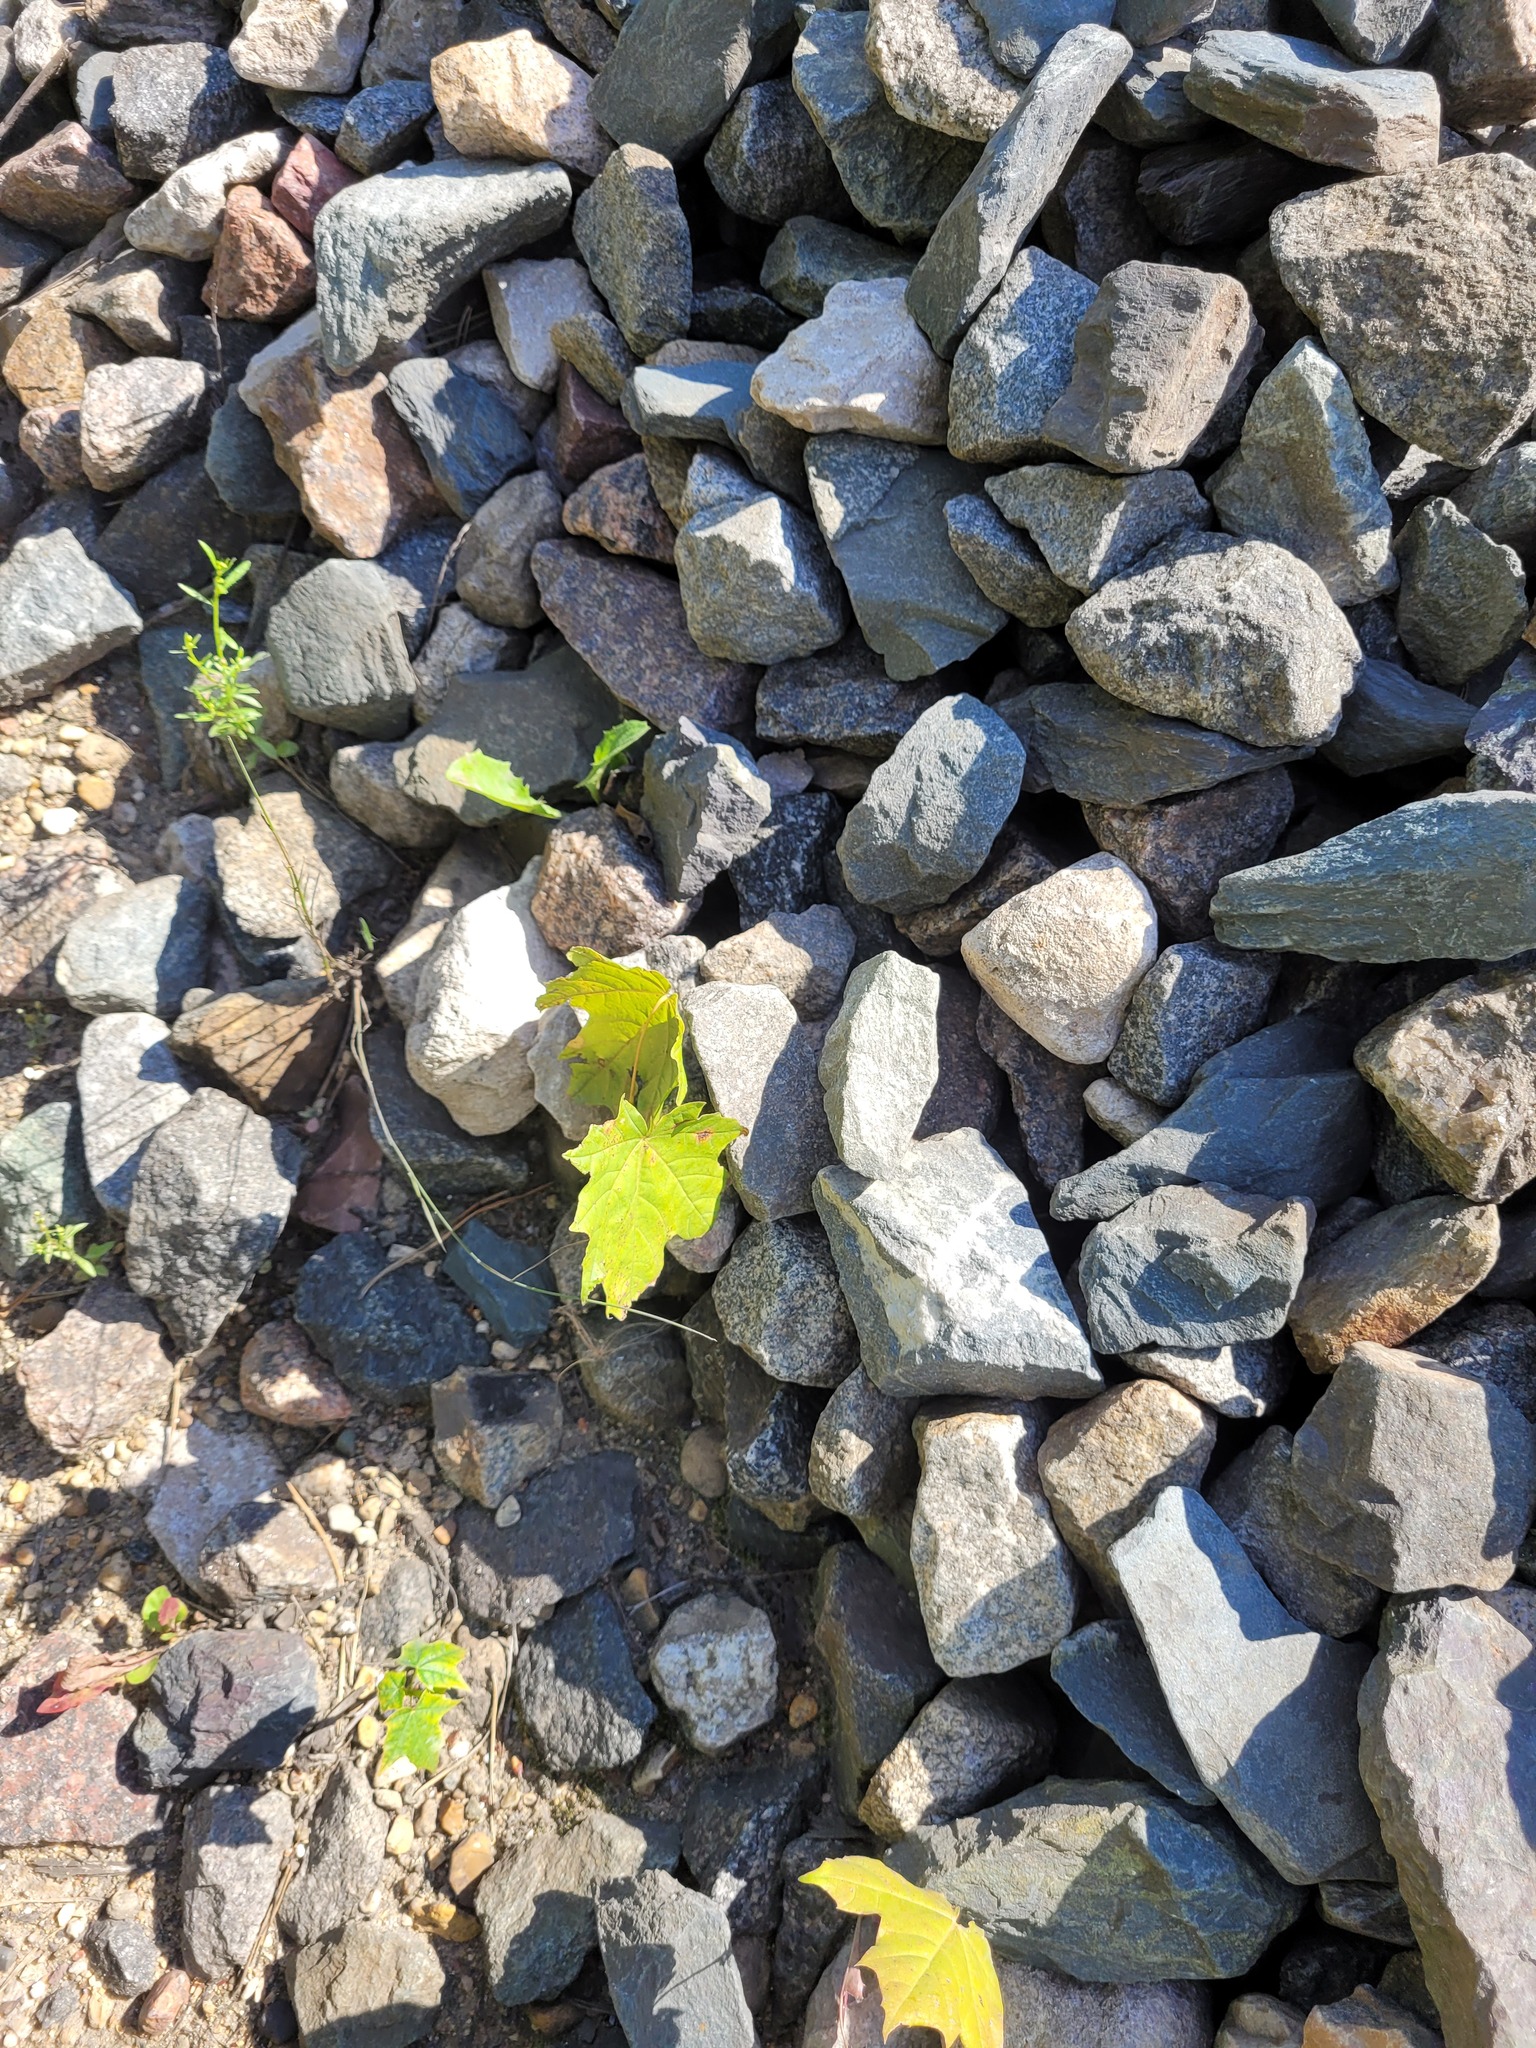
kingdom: Plantae
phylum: Tracheophyta
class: Magnoliopsida
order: Sapindales
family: Sapindaceae
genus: Acer
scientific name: Acer platanoides
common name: Norway maple
